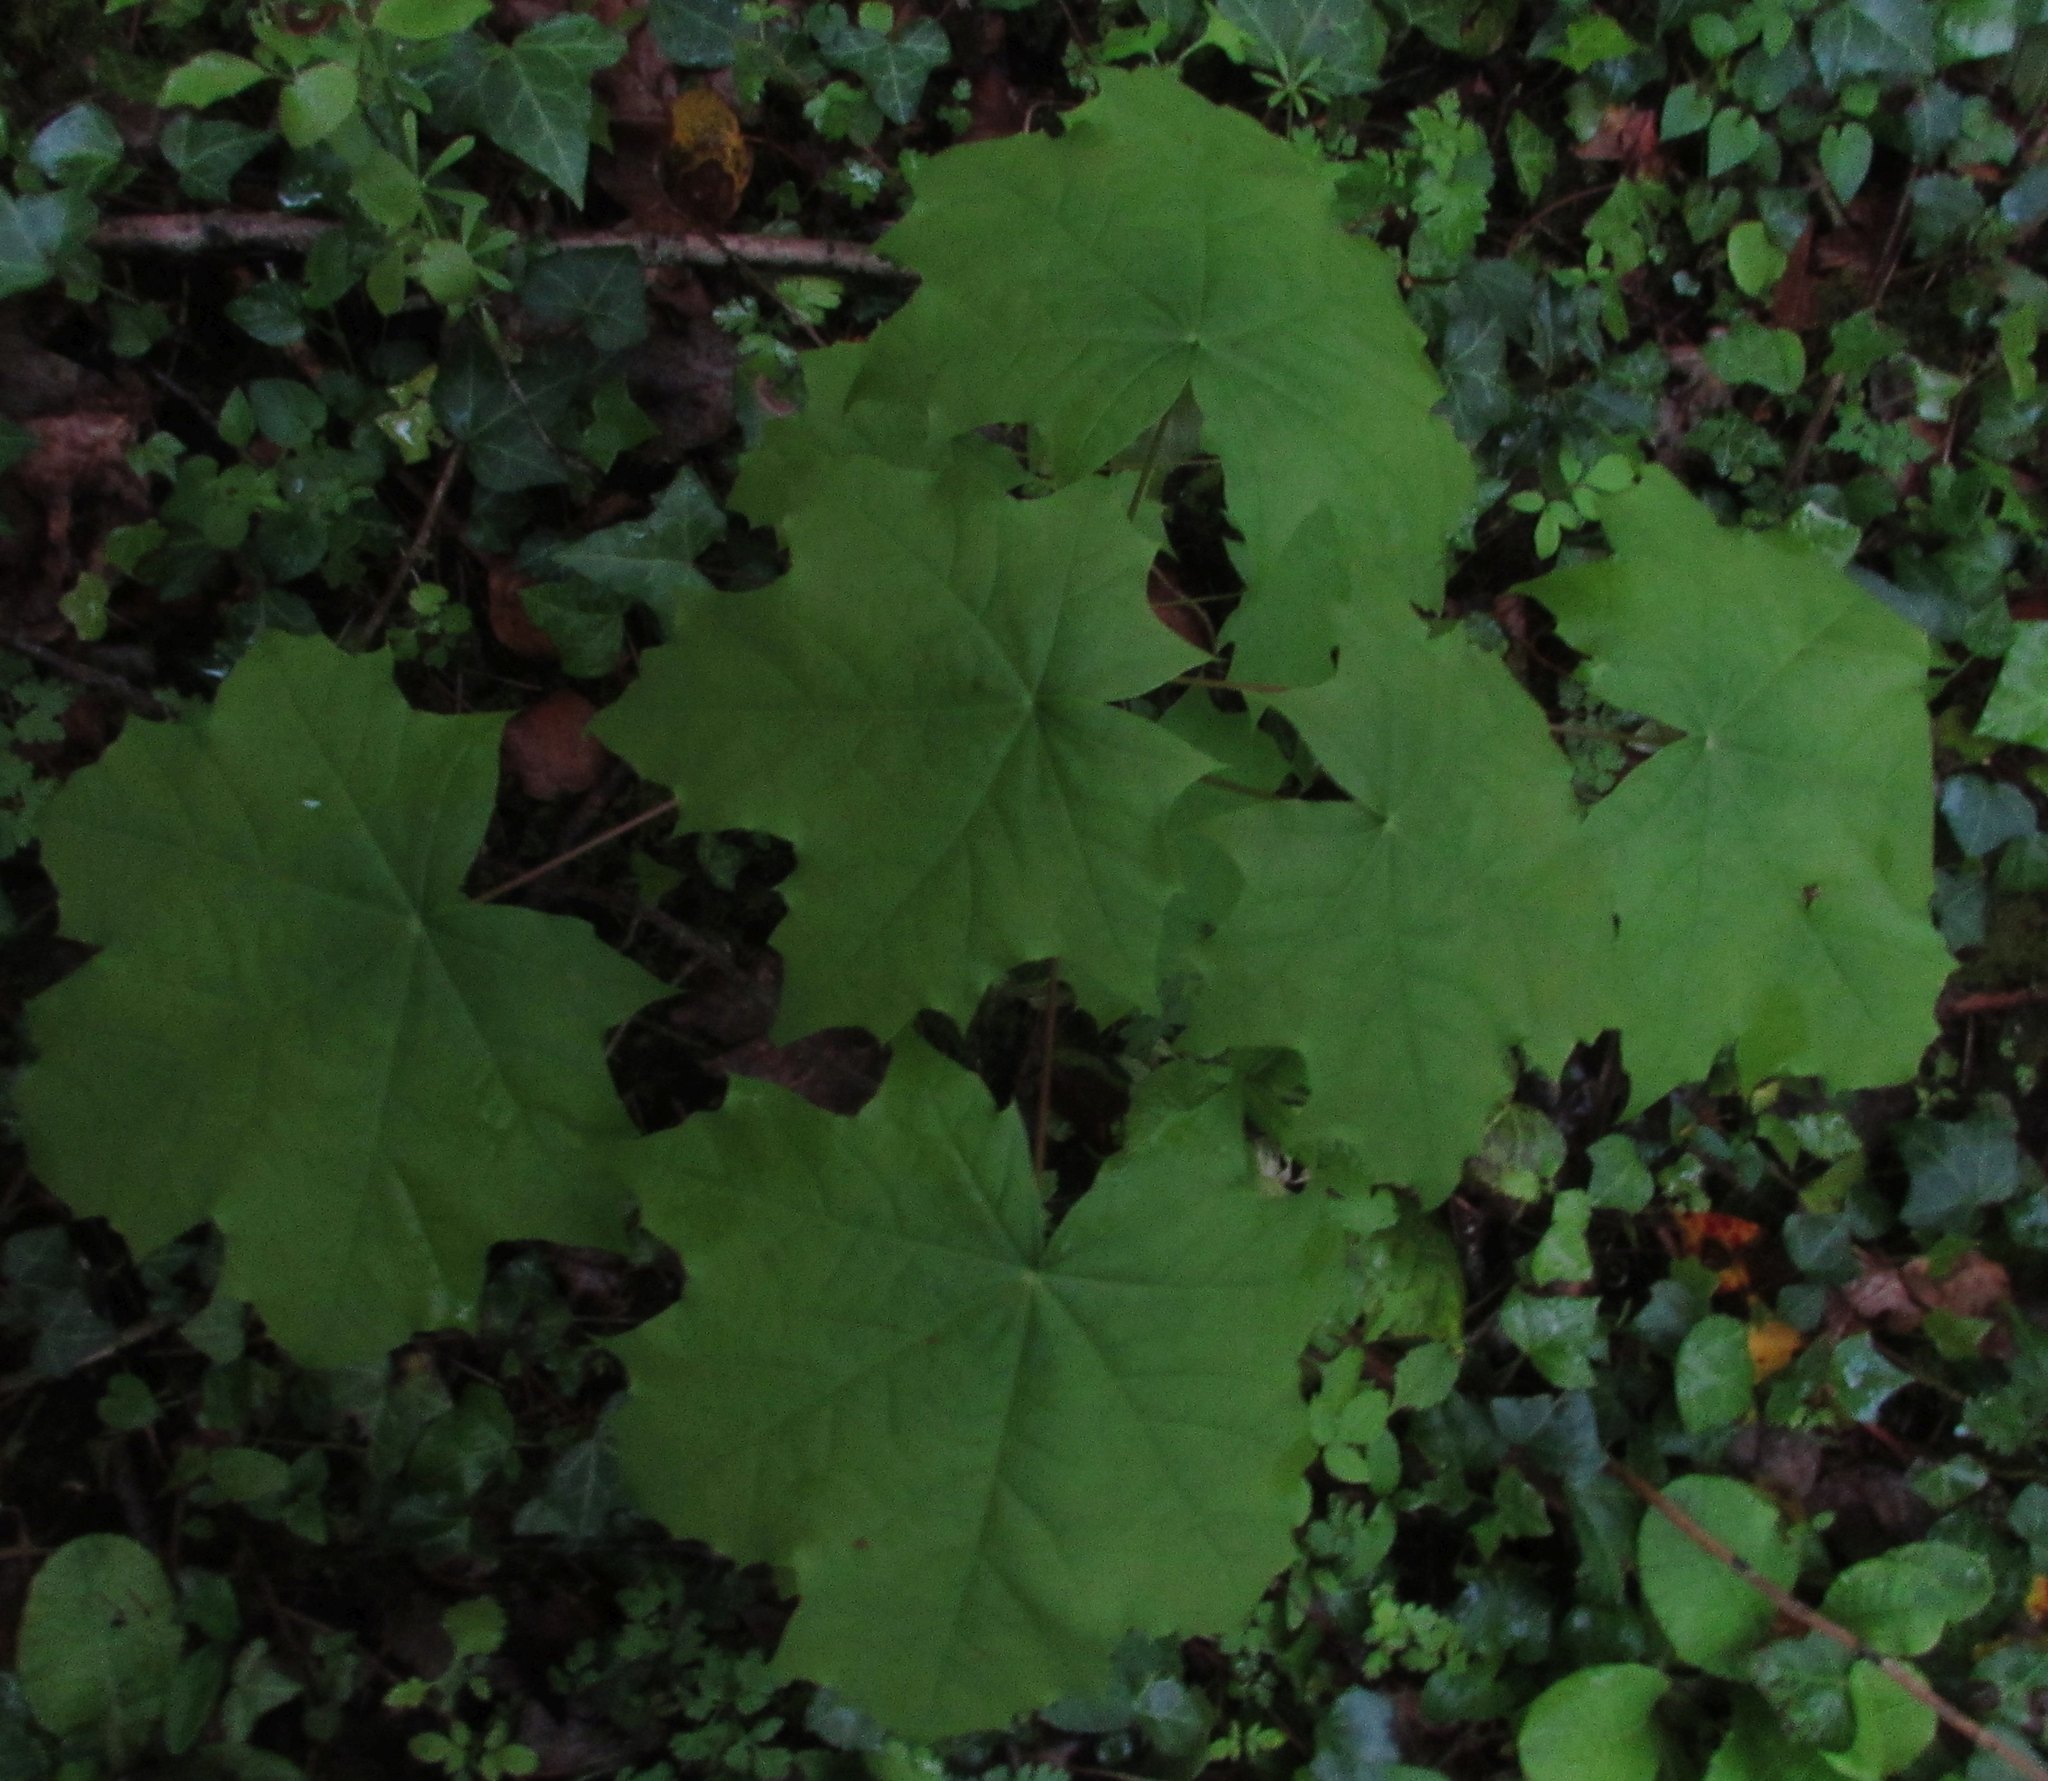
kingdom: Plantae
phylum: Tracheophyta
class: Magnoliopsida
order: Sapindales
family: Sapindaceae
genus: Acer
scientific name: Acer platanoides
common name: Norway maple
